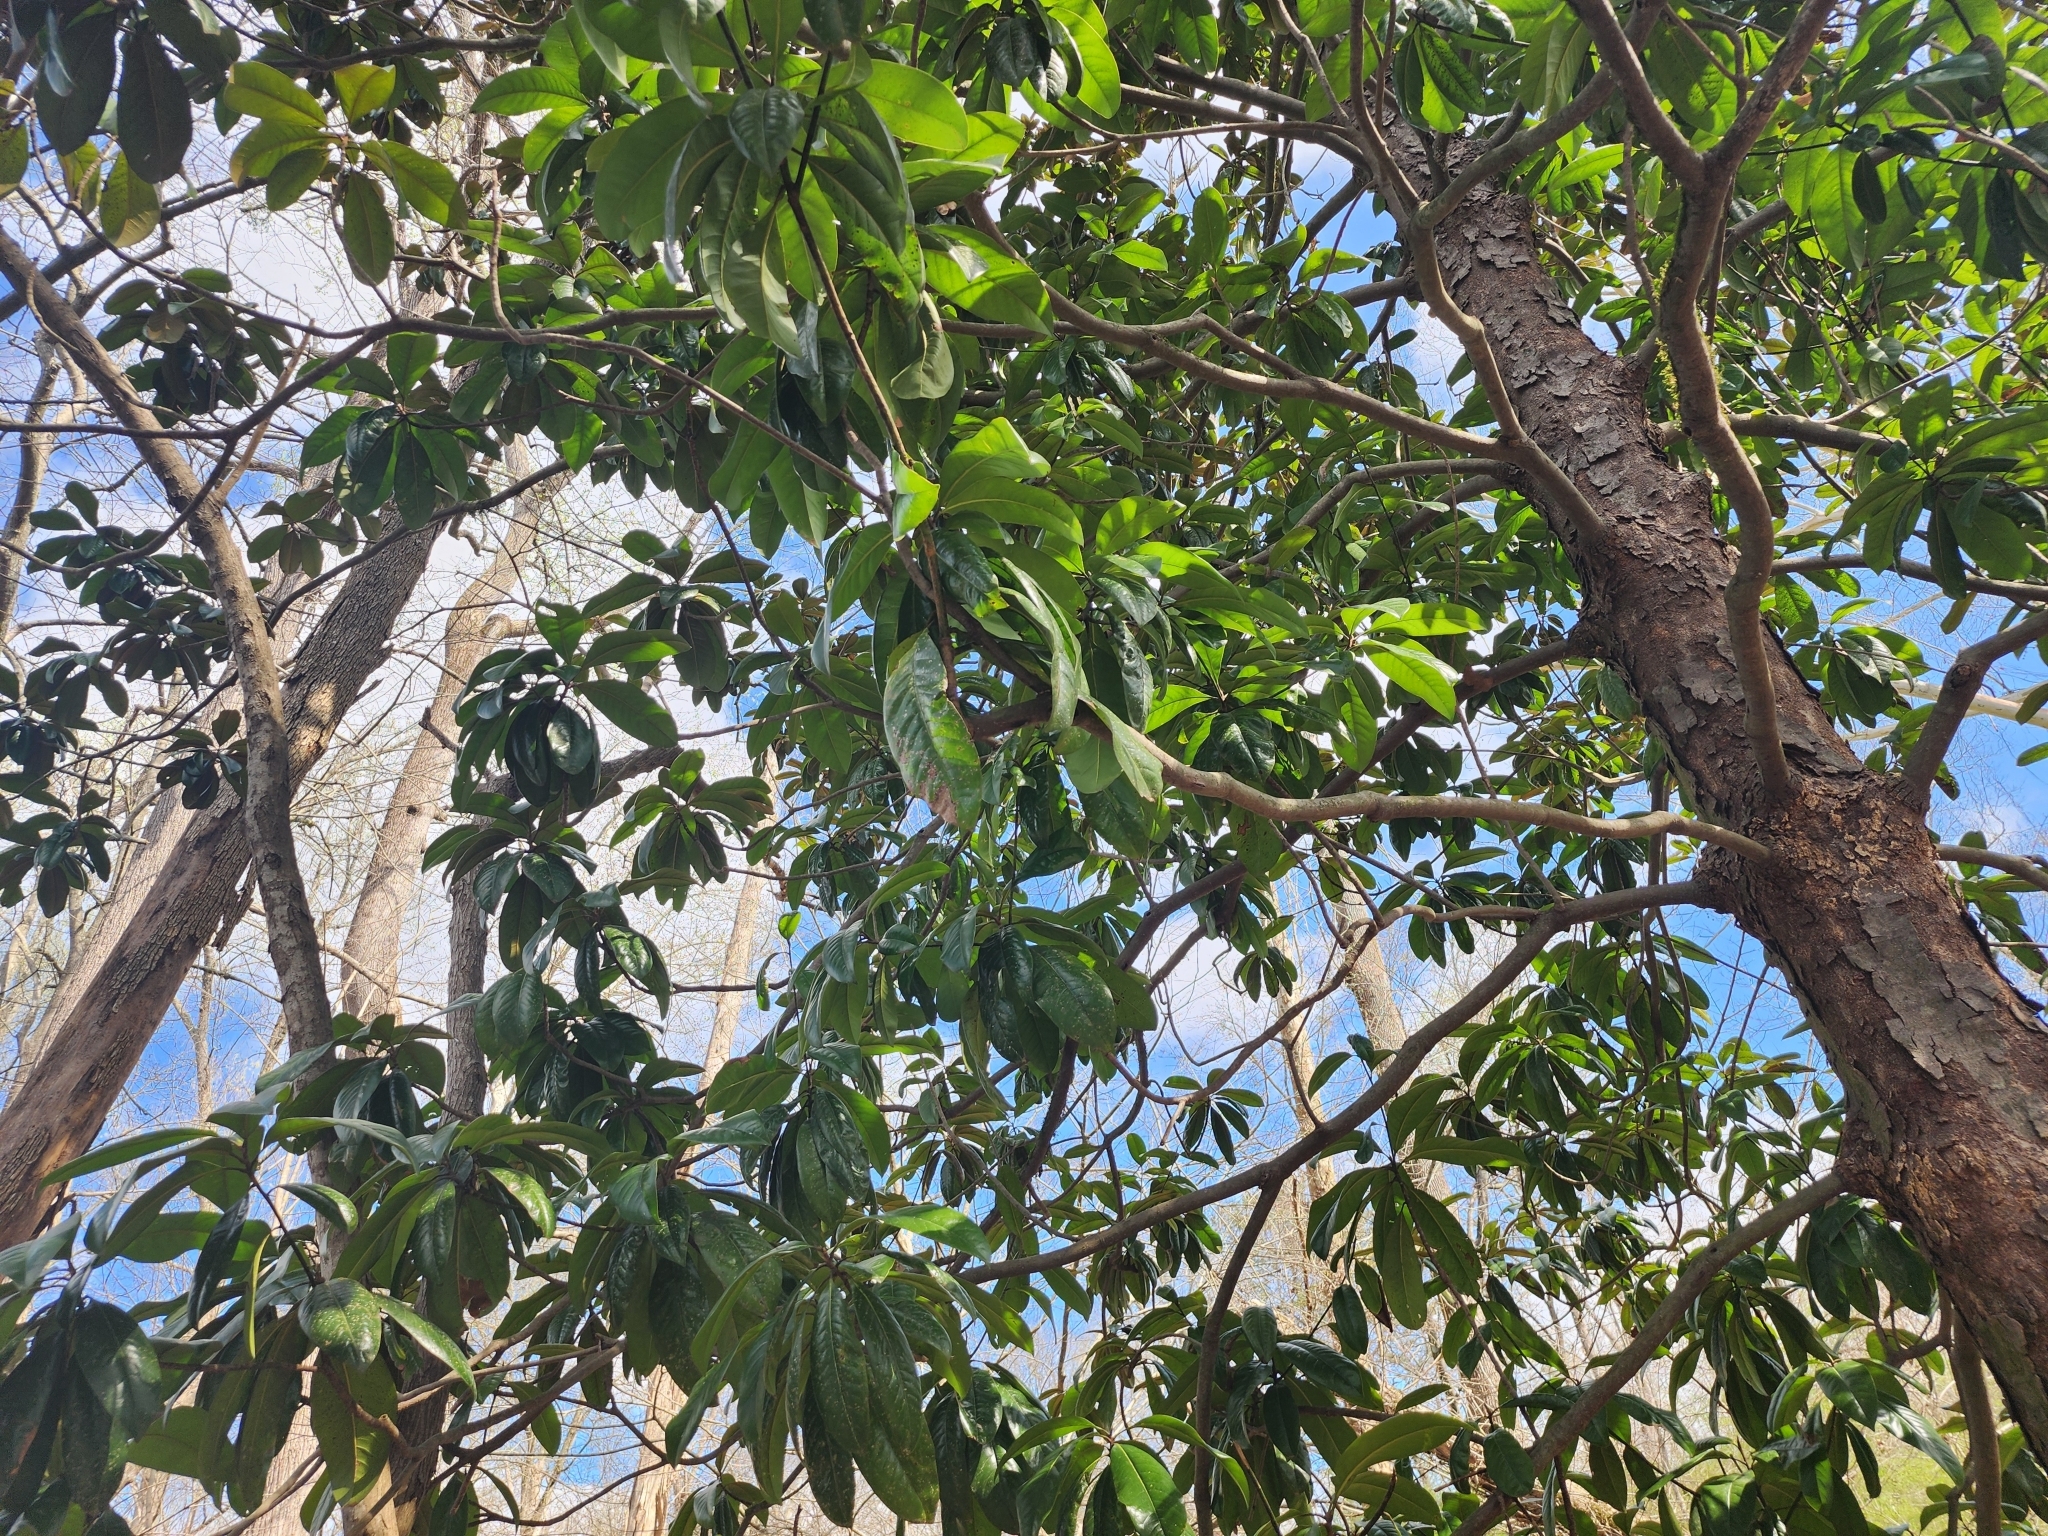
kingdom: Plantae
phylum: Tracheophyta
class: Magnoliopsida
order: Magnoliales
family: Magnoliaceae
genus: Magnolia
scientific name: Magnolia grandiflora
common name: Southern magnolia
